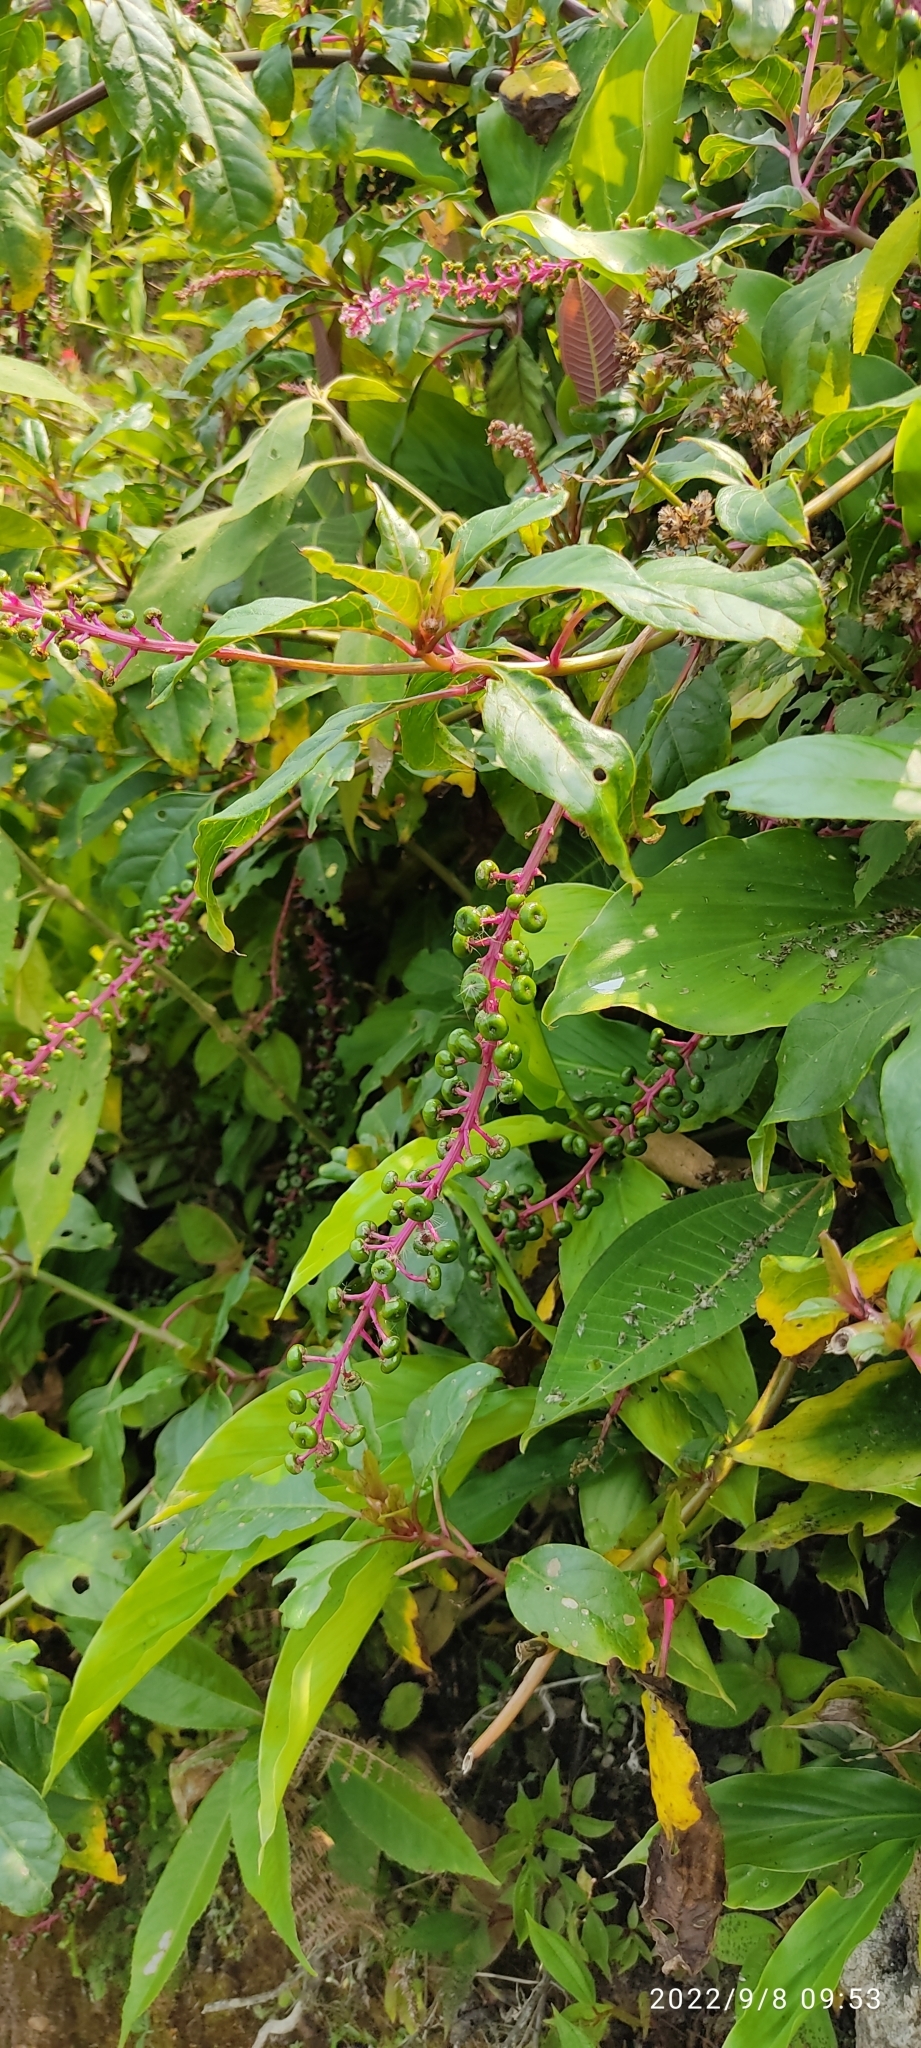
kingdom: Plantae
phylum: Tracheophyta
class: Magnoliopsida
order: Caryophyllales
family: Phytolaccaceae
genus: Phytolacca
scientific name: Phytolacca rivinoides
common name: Venezuelan pokeweed
